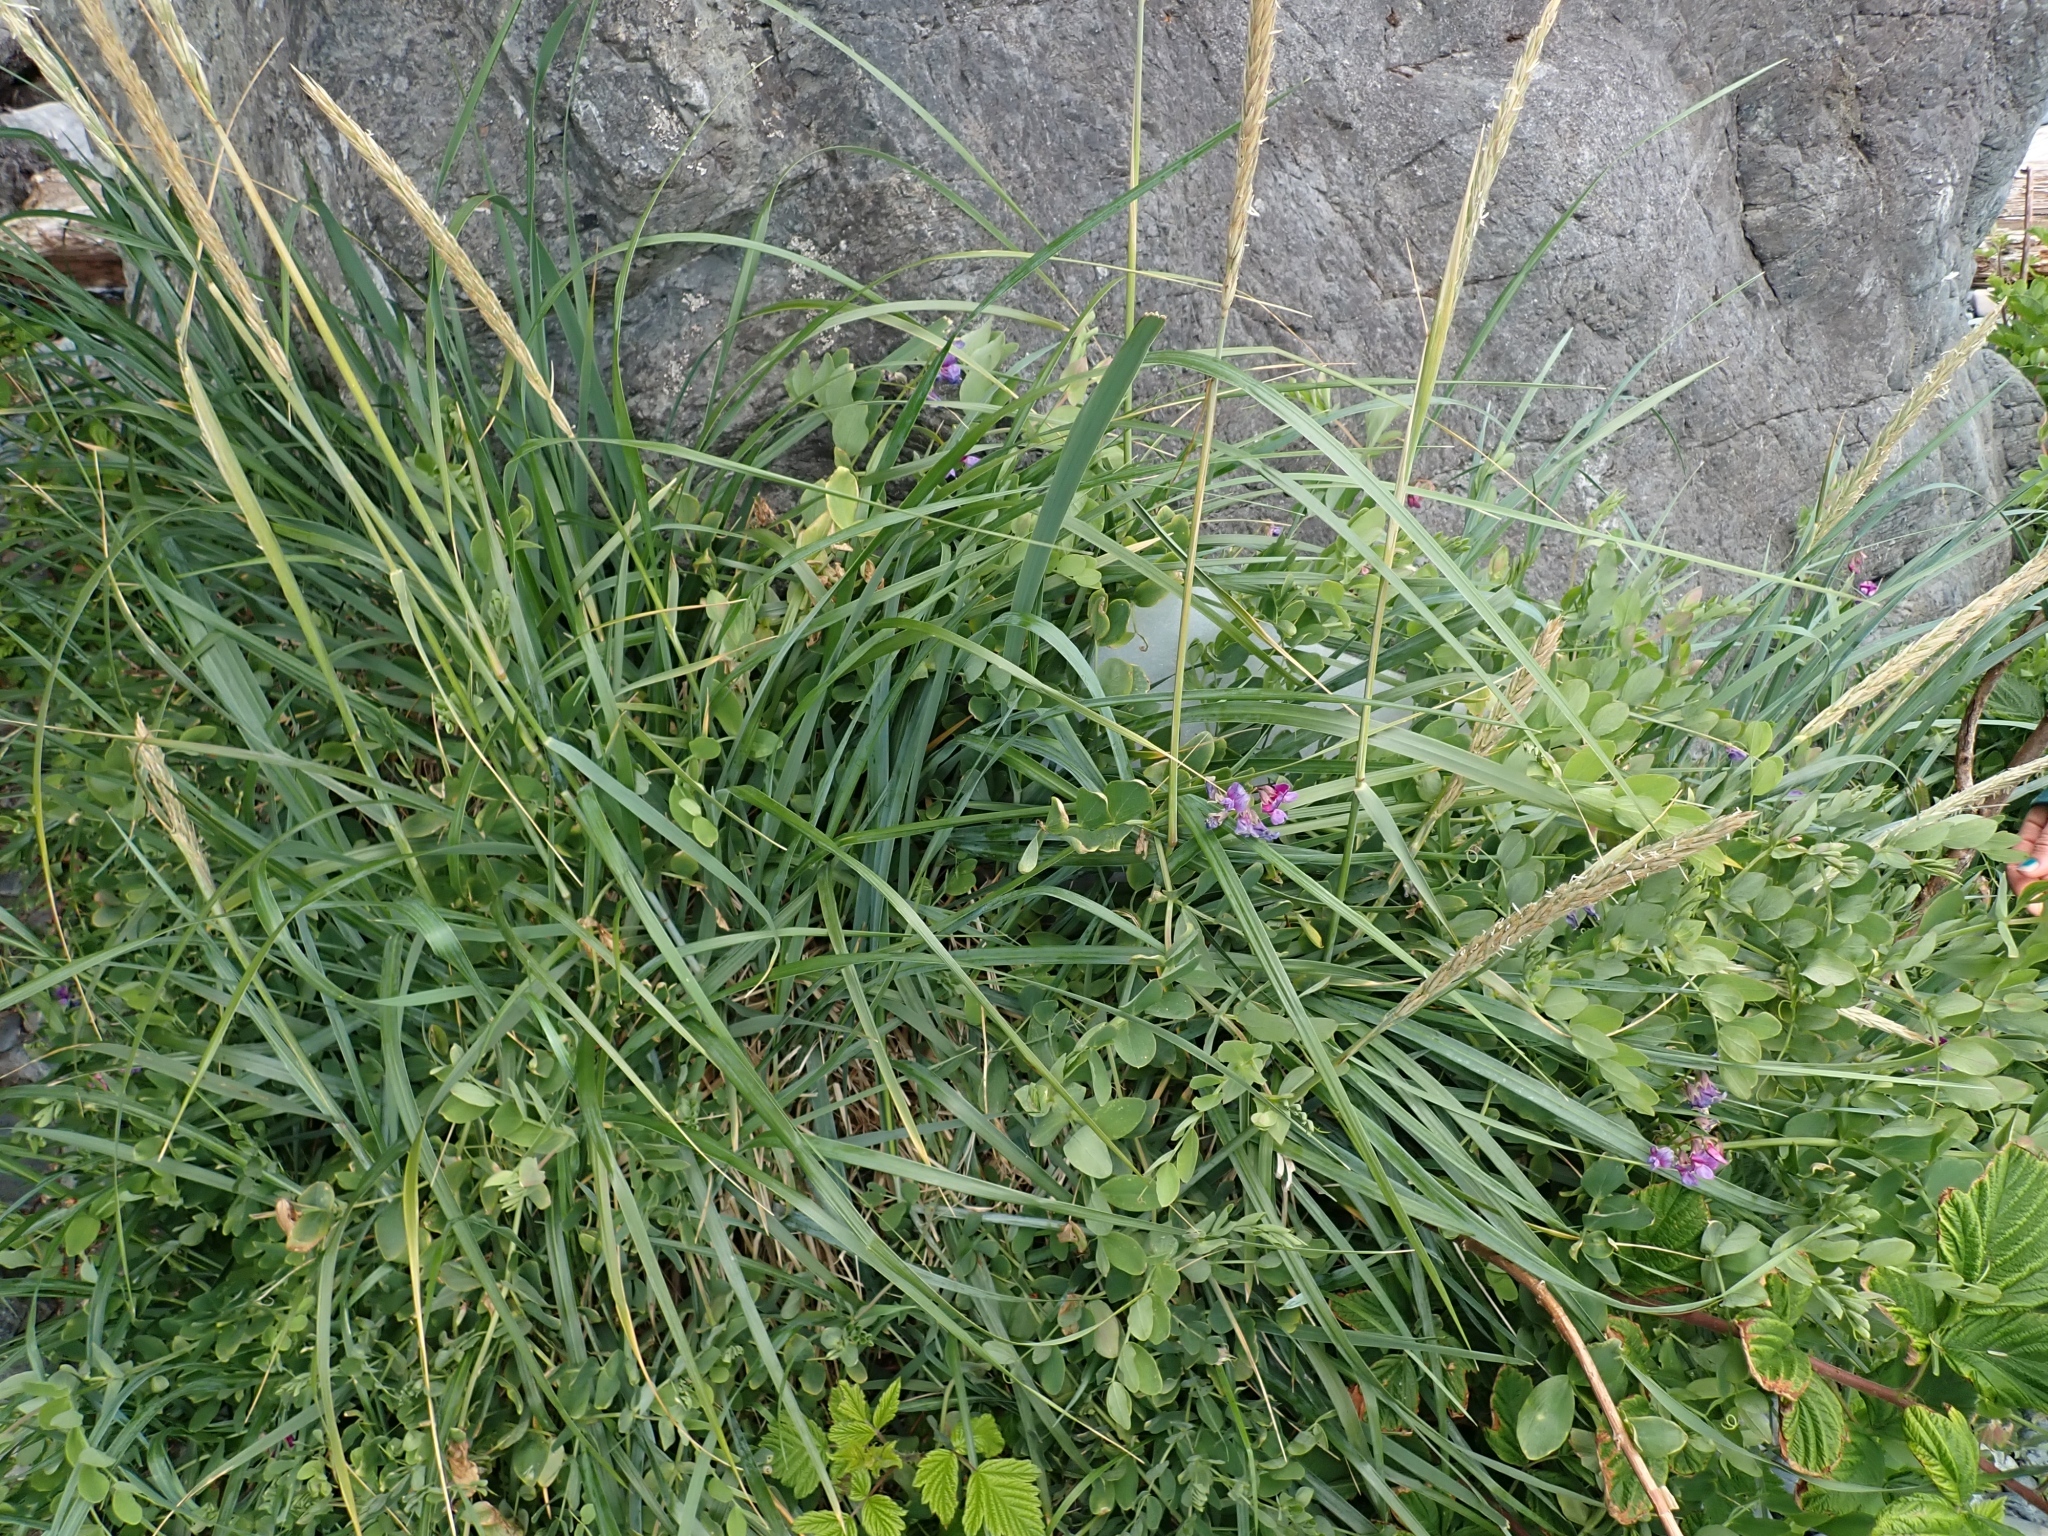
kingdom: Plantae
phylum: Tracheophyta
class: Magnoliopsida
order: Fabales
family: Fabaceae
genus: Lathyrus
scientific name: Lathyrus japonicus
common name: Sea pea
